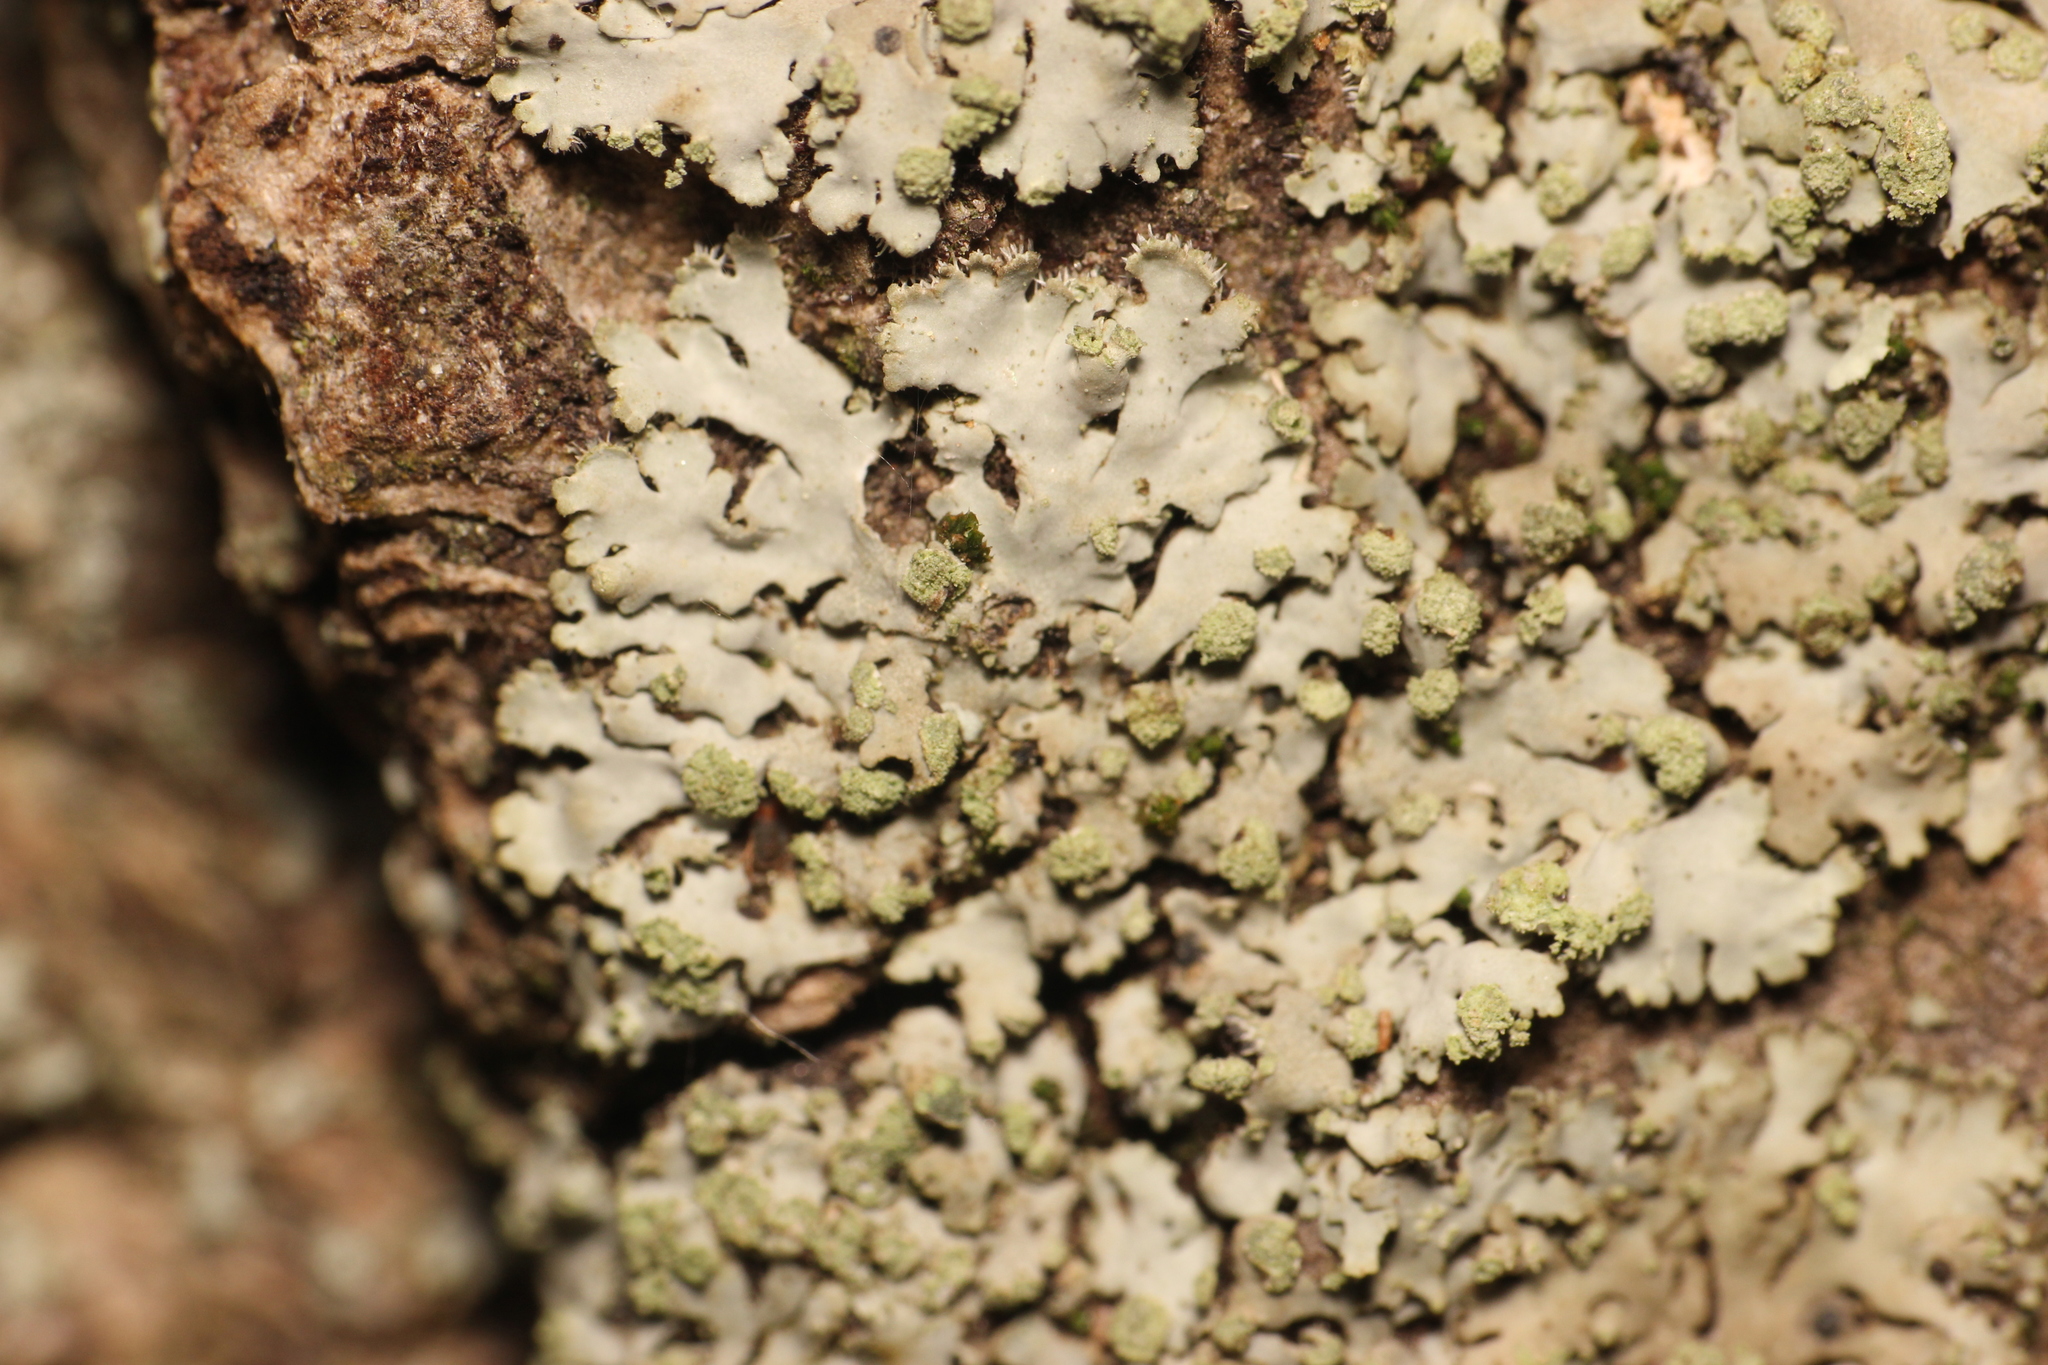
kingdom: Fungi
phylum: Ascomycota
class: Lecanoromycetes
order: Caliciales
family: Physciaceae
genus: Phaeophyscia
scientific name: Phaeophyscia orbicularis
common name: Mealy shadow lichen
